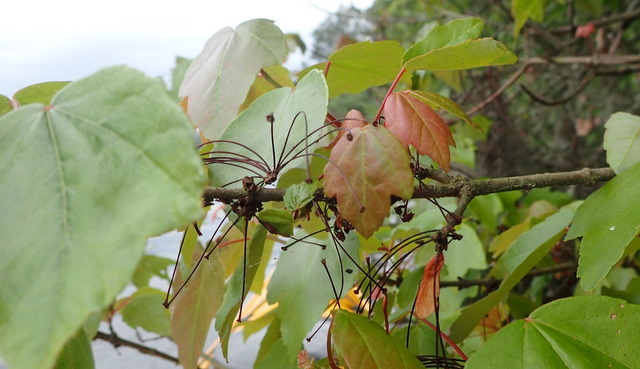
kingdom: Plantae
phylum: Tracheophyta
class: Magnoliopsida
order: Sapindales
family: Sapindaceae
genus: Acer
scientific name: Acer rubrum
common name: Red maple
